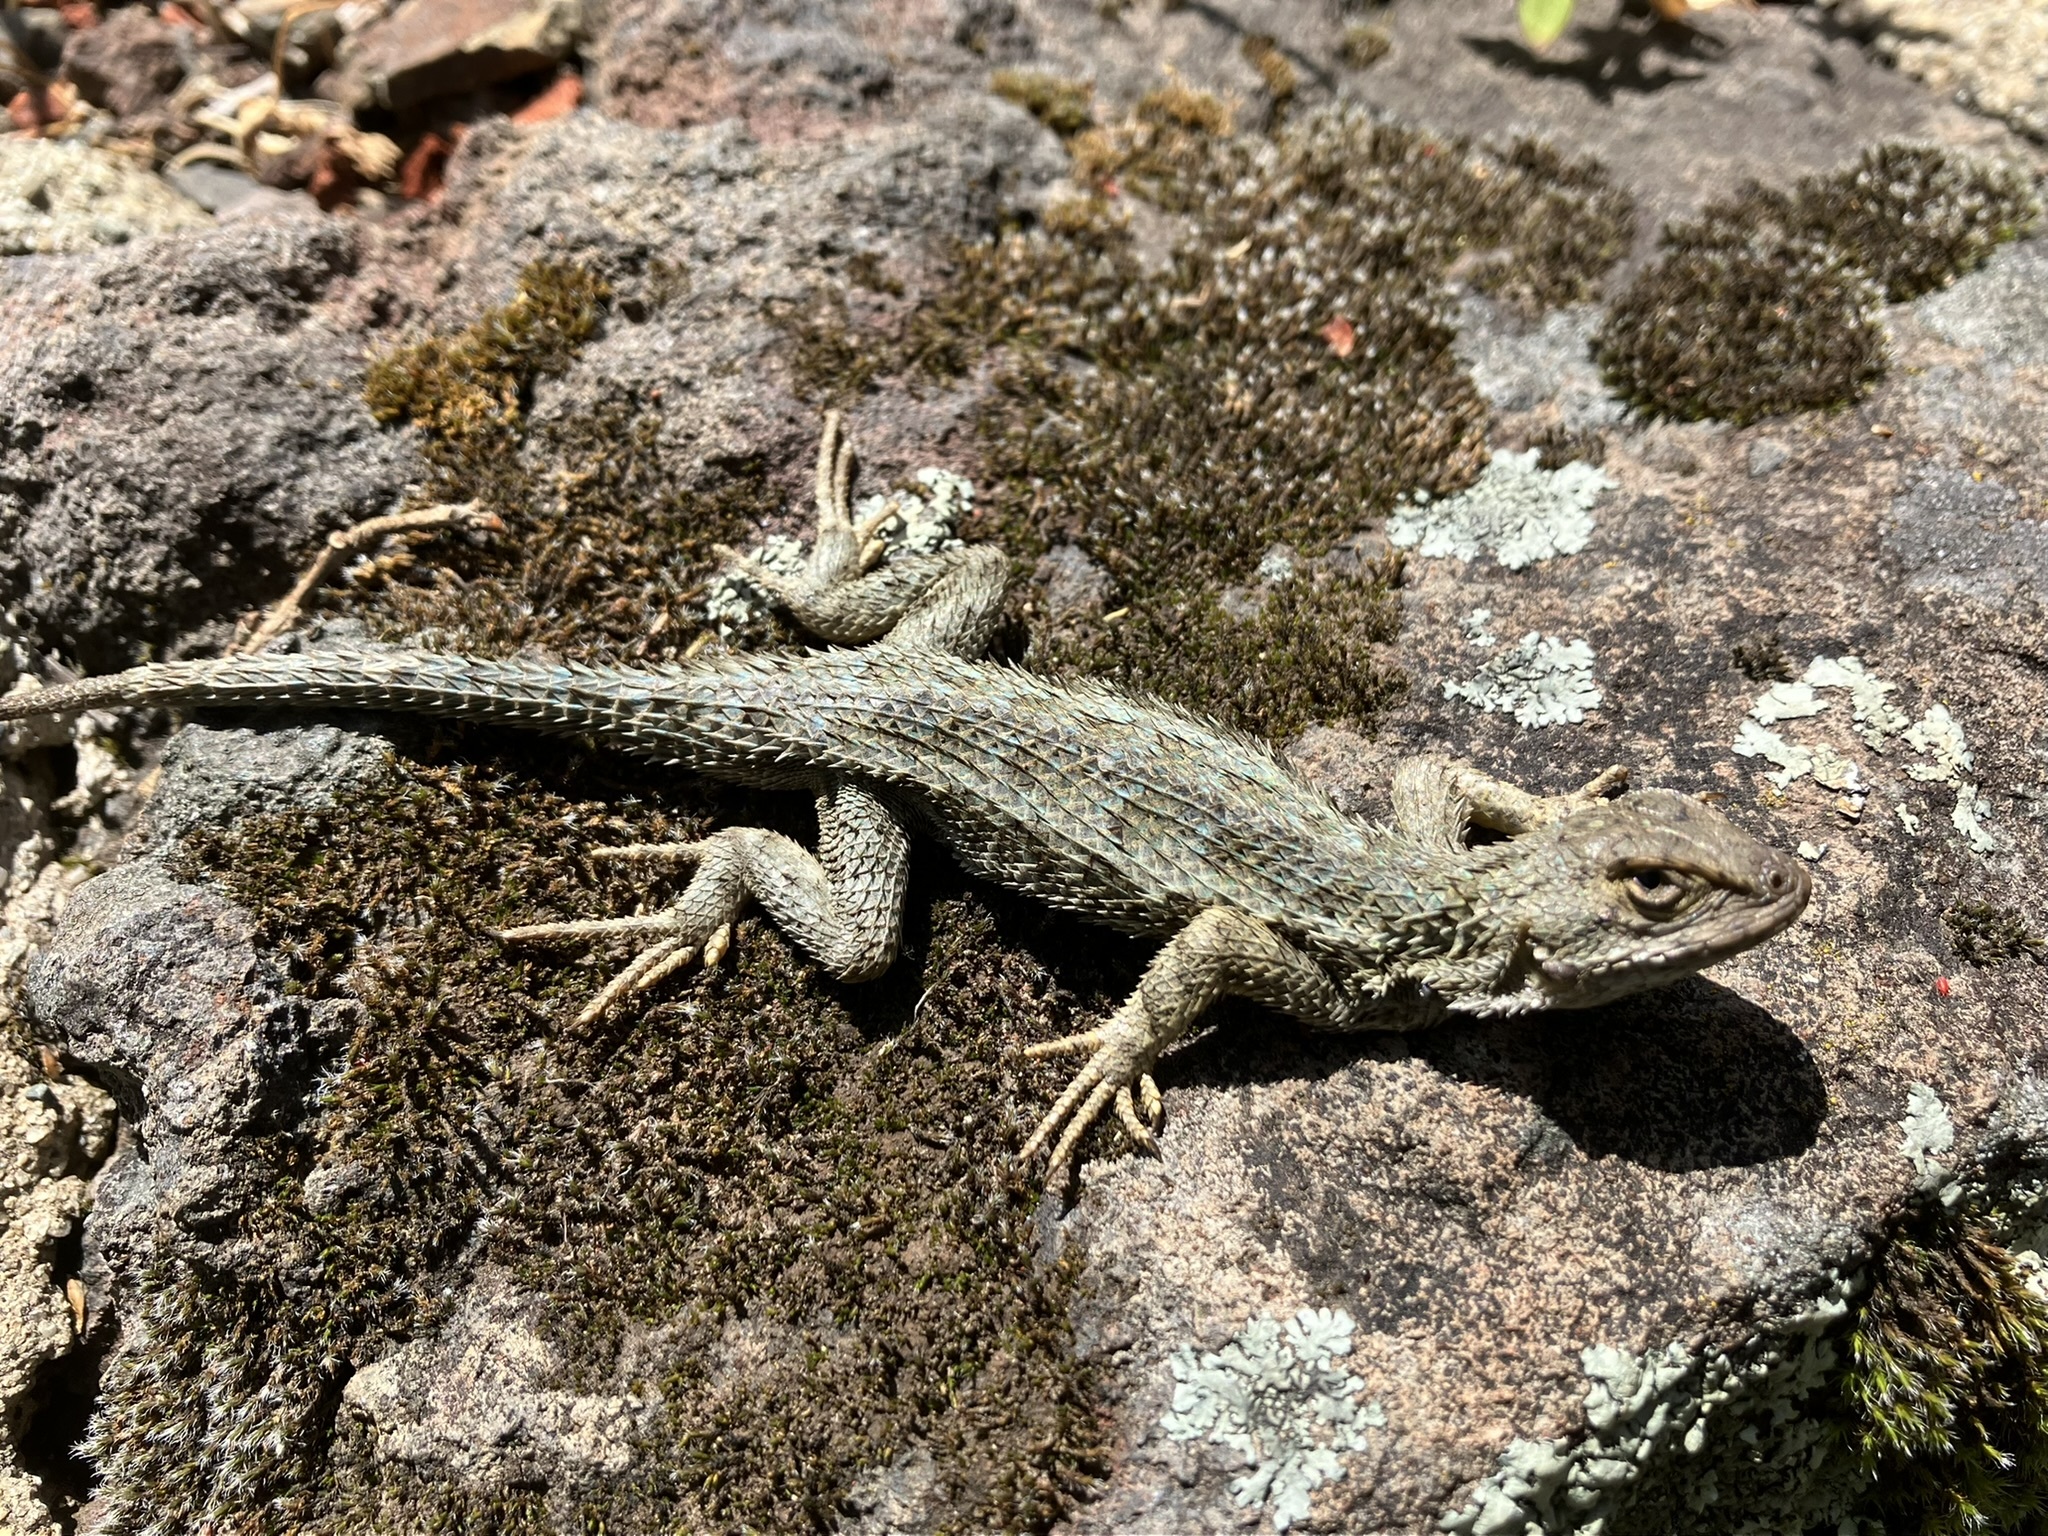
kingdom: Animalia
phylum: Chordata
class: Squamata
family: Phrynosomatidae
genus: Sceloporus
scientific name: Sceloporus occidentalis
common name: Western fence lizard
